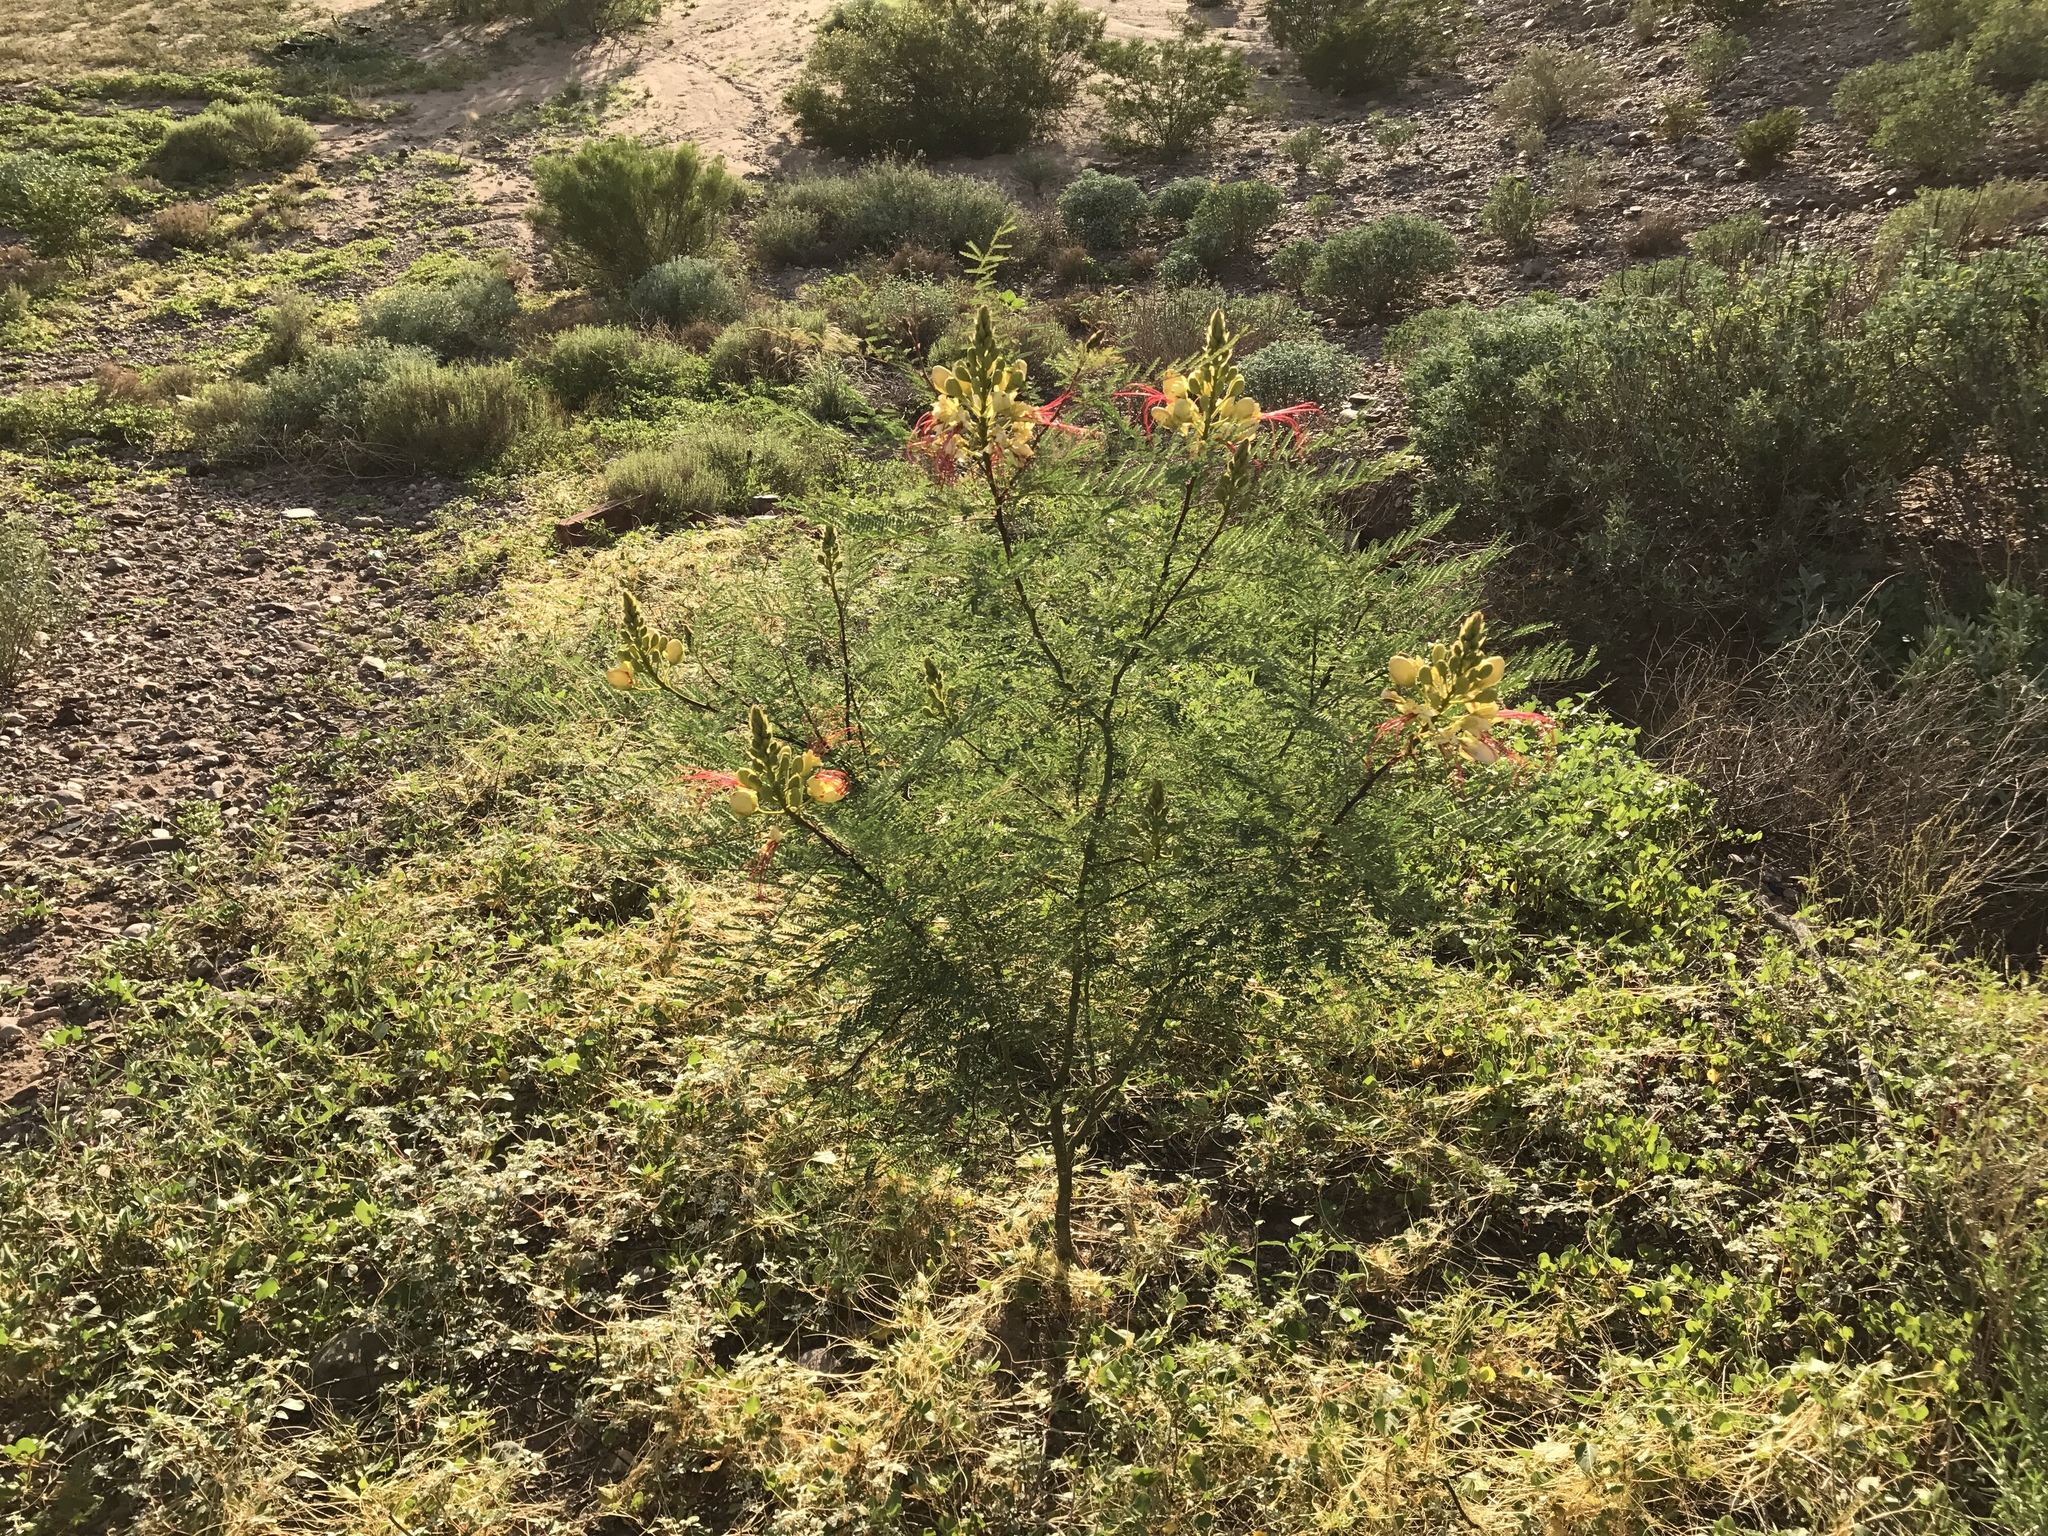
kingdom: Plantae
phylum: Tracheophyta
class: Magnoliopsida
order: Fabales
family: Fabaceae
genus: Erythrostemon
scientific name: Erythrostemon gilliesii
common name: Bird-of-paradise shrub
